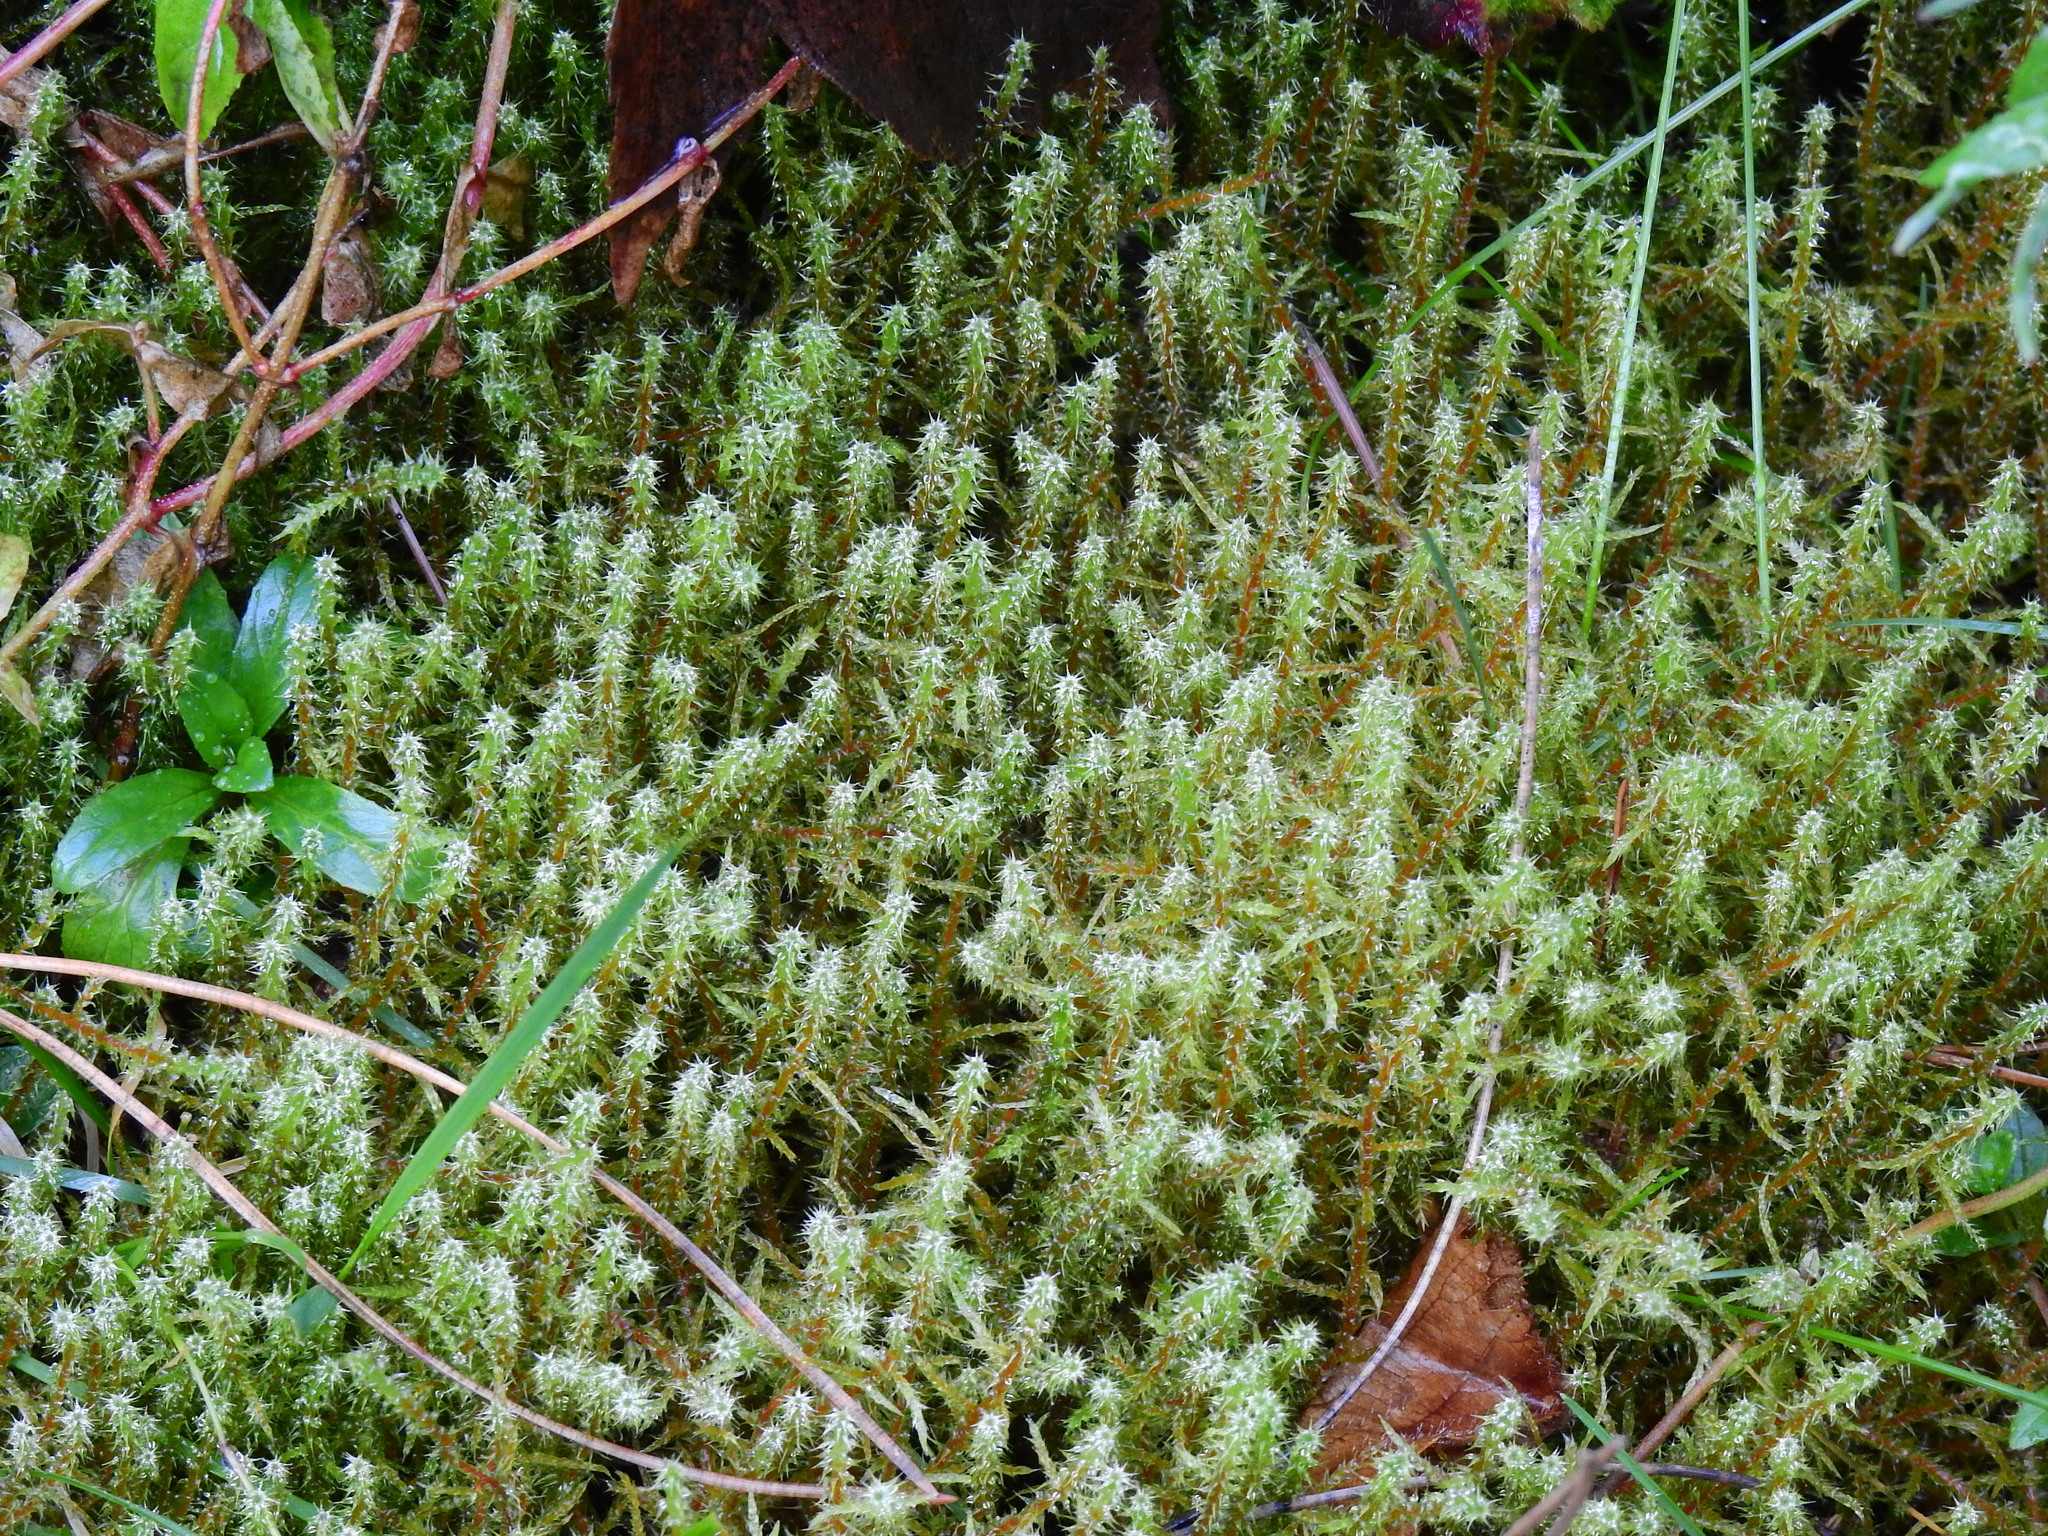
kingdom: Plantae
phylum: Bryophyta
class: Bryopsida
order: Hypnales
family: Hylocomiaceae
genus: Rhytidiadelphus
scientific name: Rhytidiadelphus squarrosus
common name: Springy turf-moss
